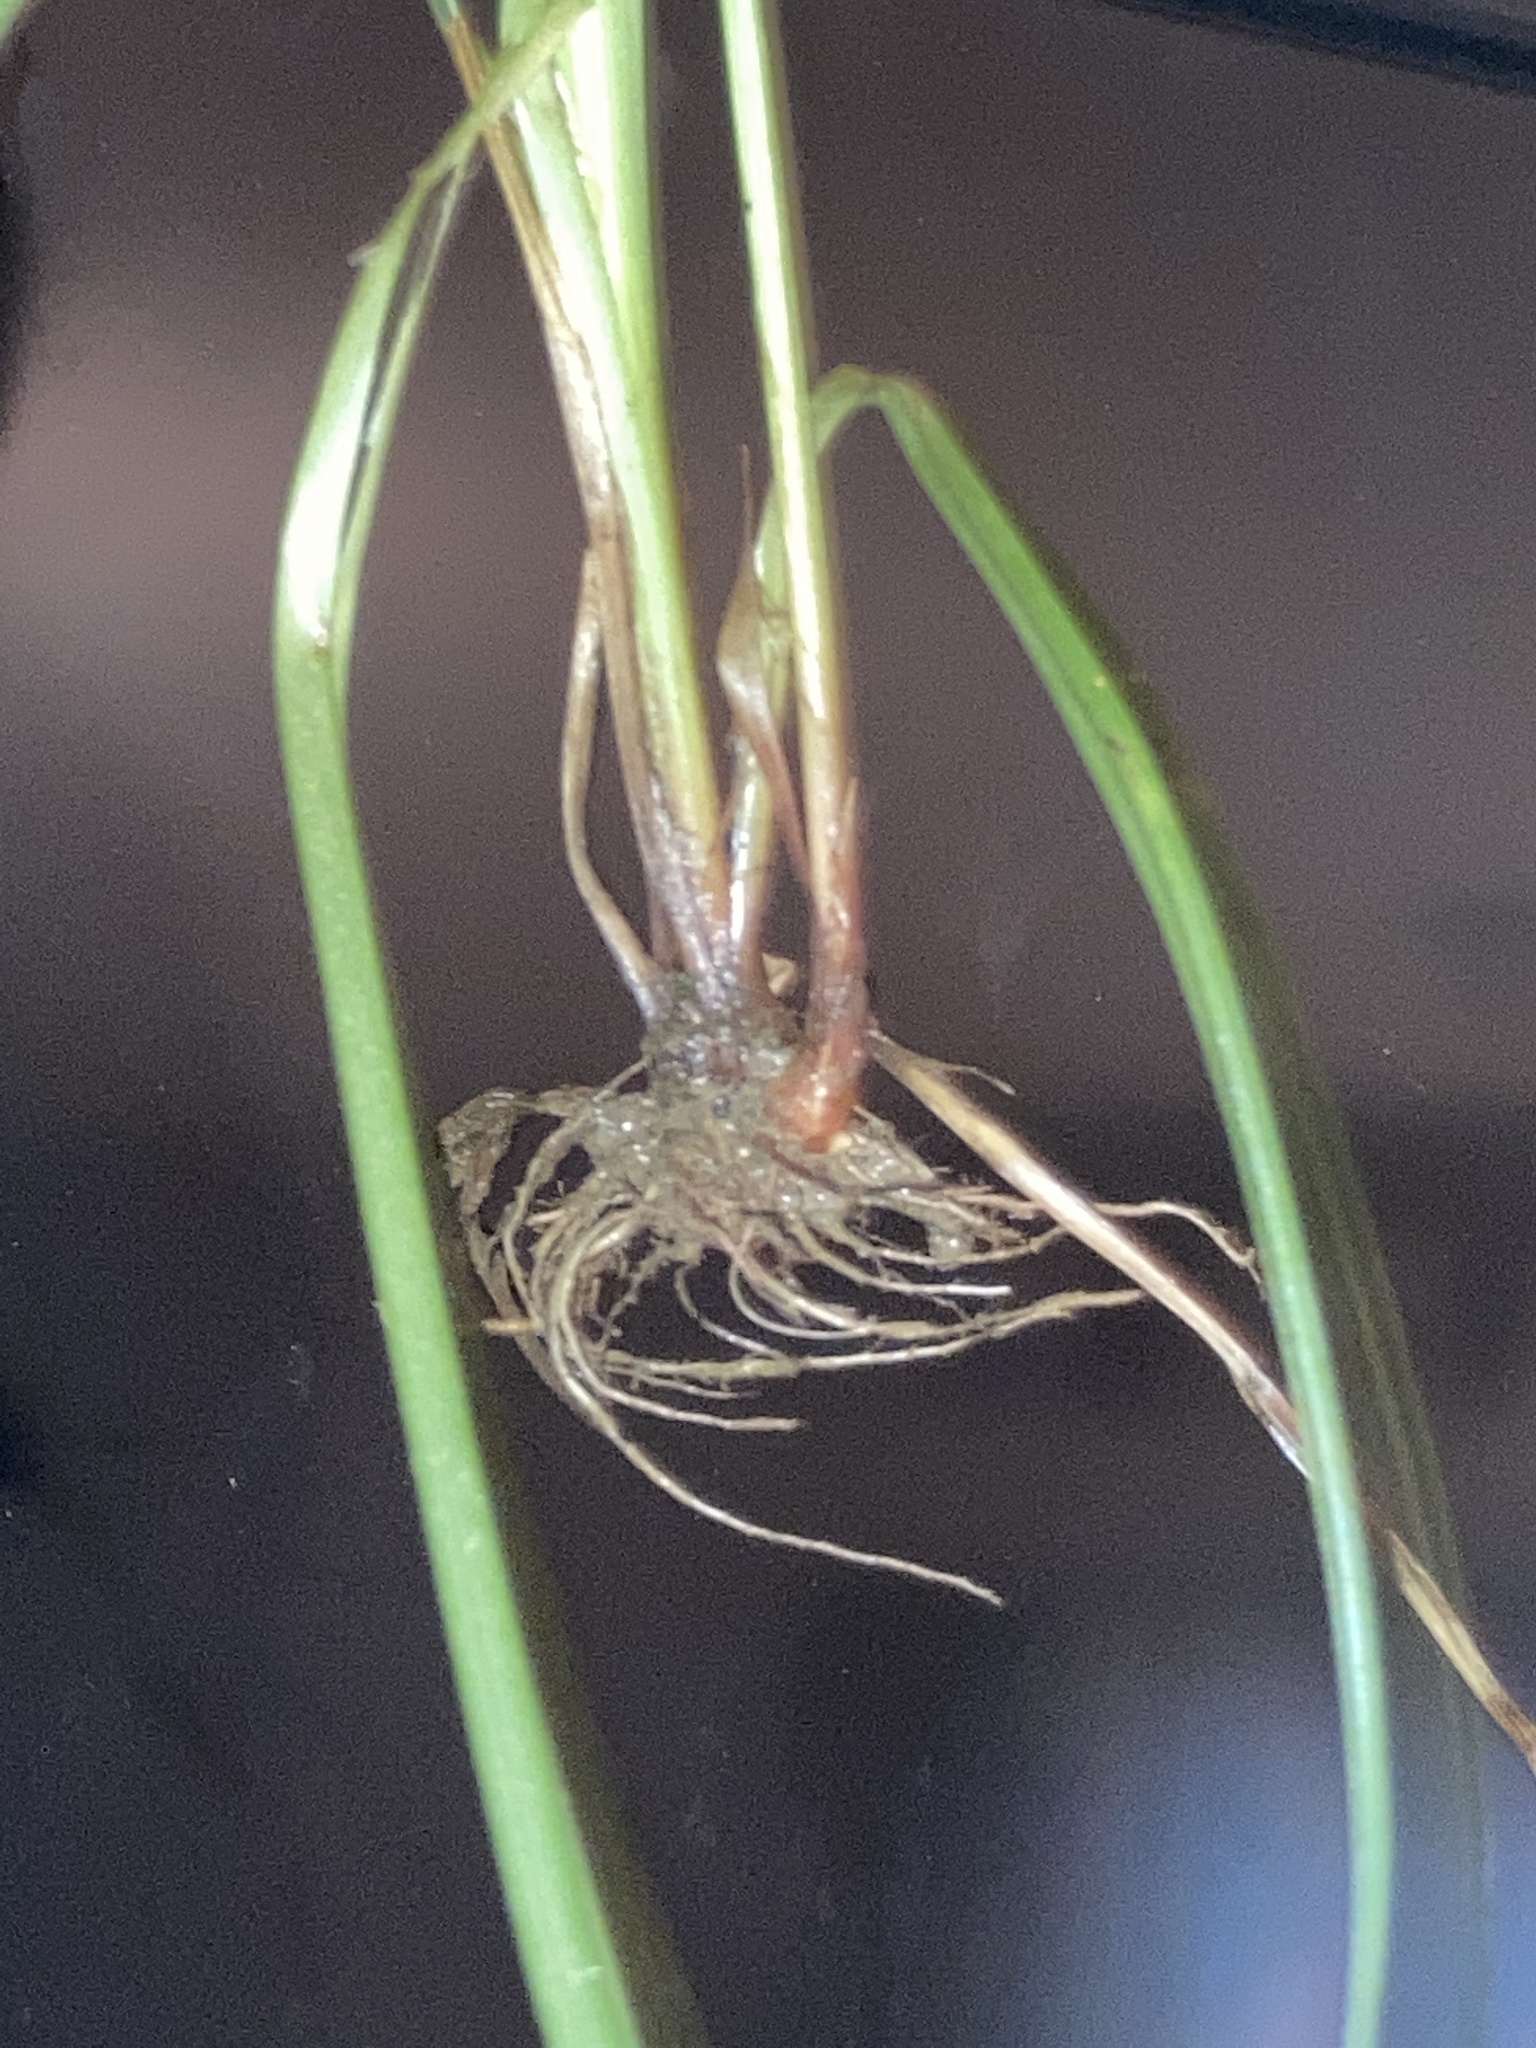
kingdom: Plantae
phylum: Tracheophyta
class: Liliopsida
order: Poales
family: Cyperaceae
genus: Cyperus
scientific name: Cyperus retrorsus
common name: Pinebarren flat sedge
